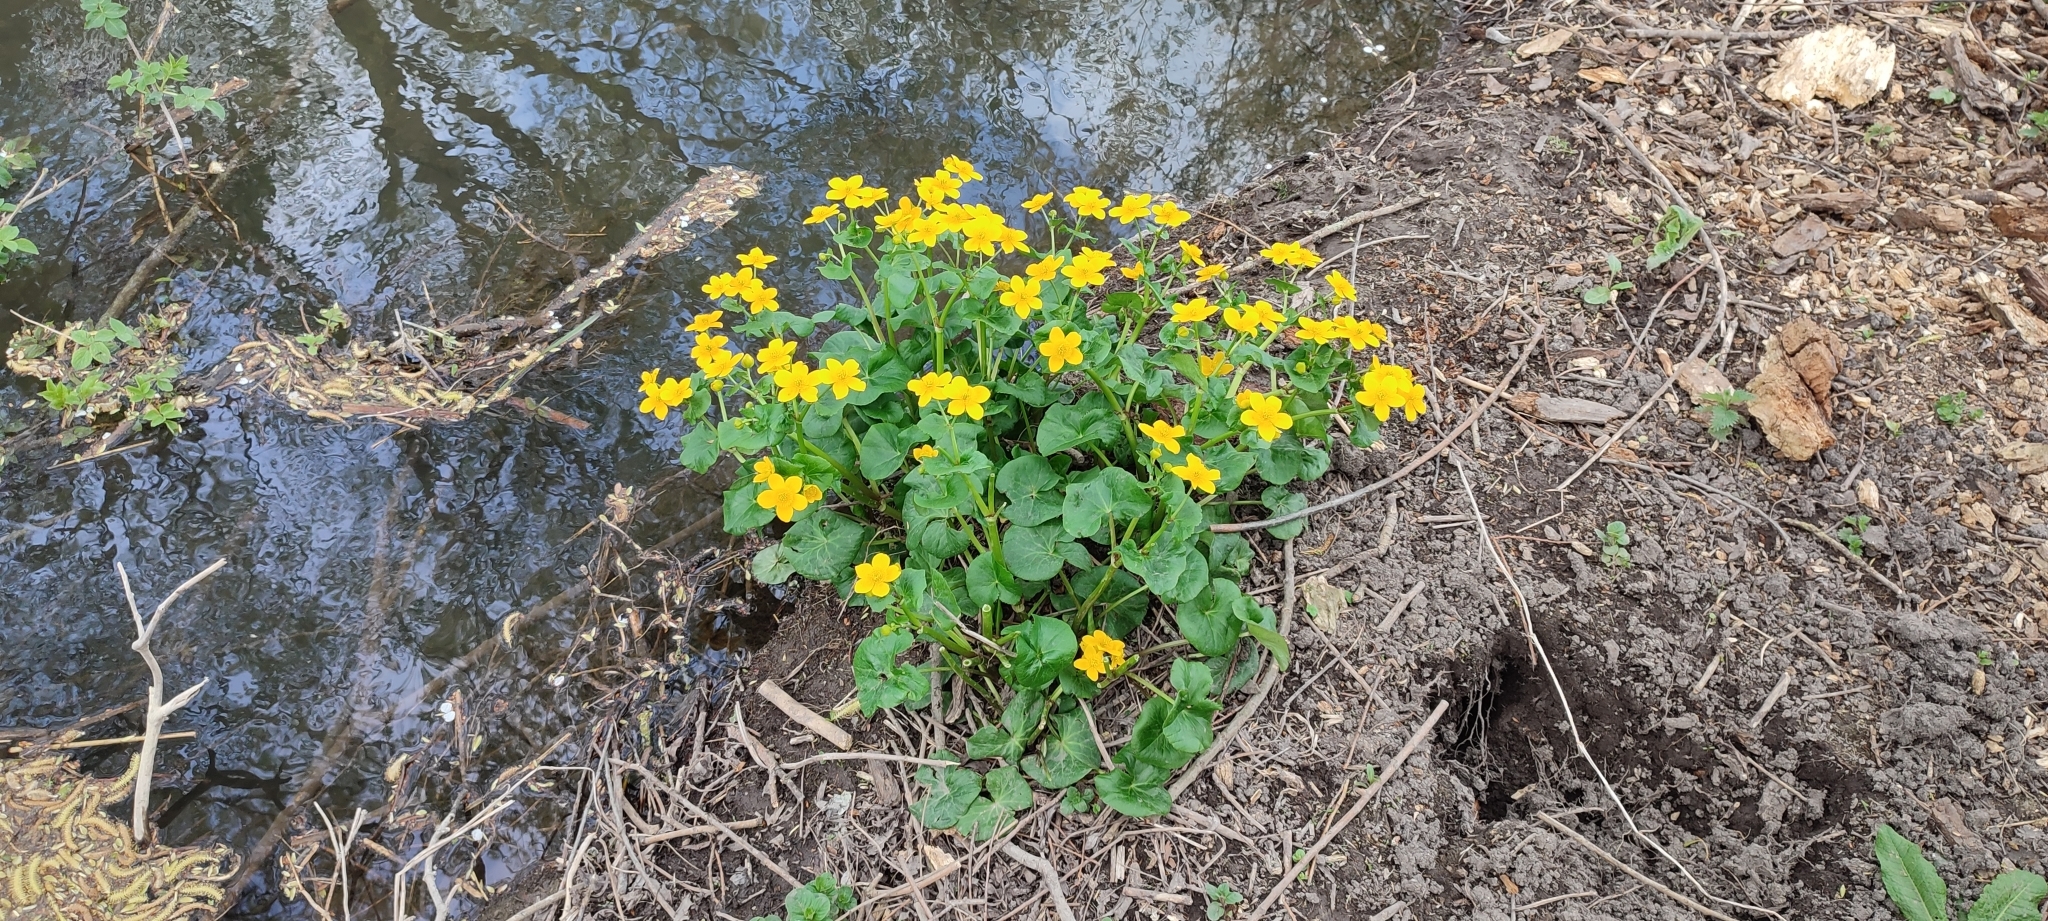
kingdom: Plantae
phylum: Tracheophyta
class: Magnoliopsida
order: Ranunculales
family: Ranunculaceae
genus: Caltha
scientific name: Caltha palustris
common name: Marsh marigold
